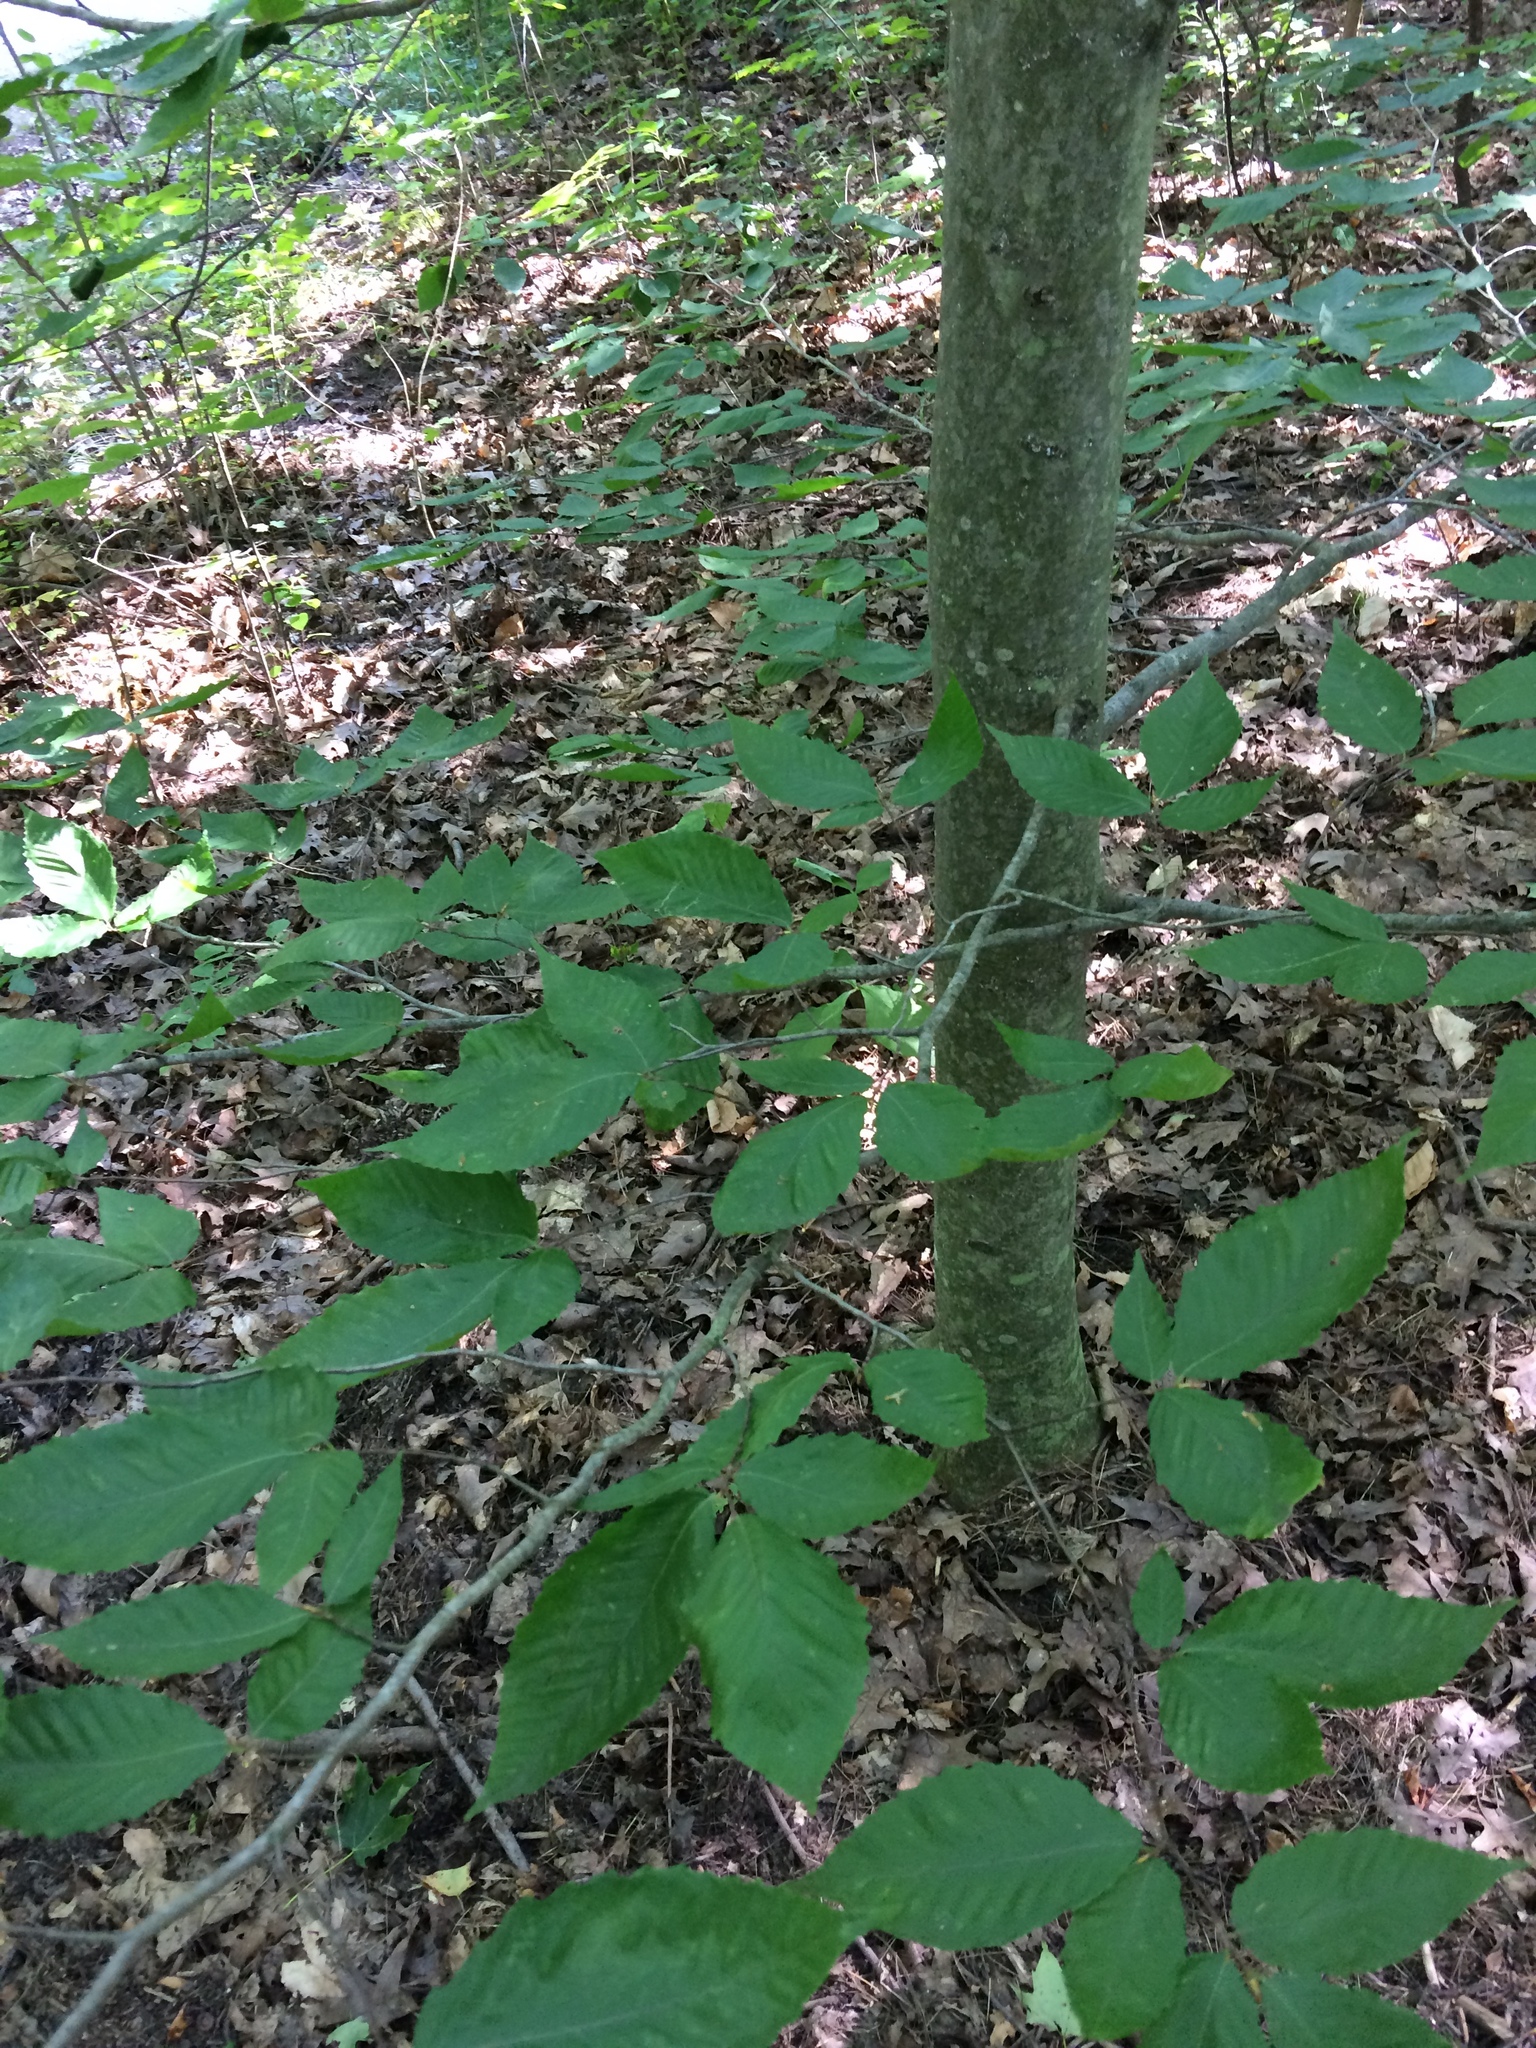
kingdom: Plantae
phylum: Tracheophyta
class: Magnoliopsida
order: Fagales
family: Fagaceae
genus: Fagus
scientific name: Fagus grandifolia
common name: American beech
